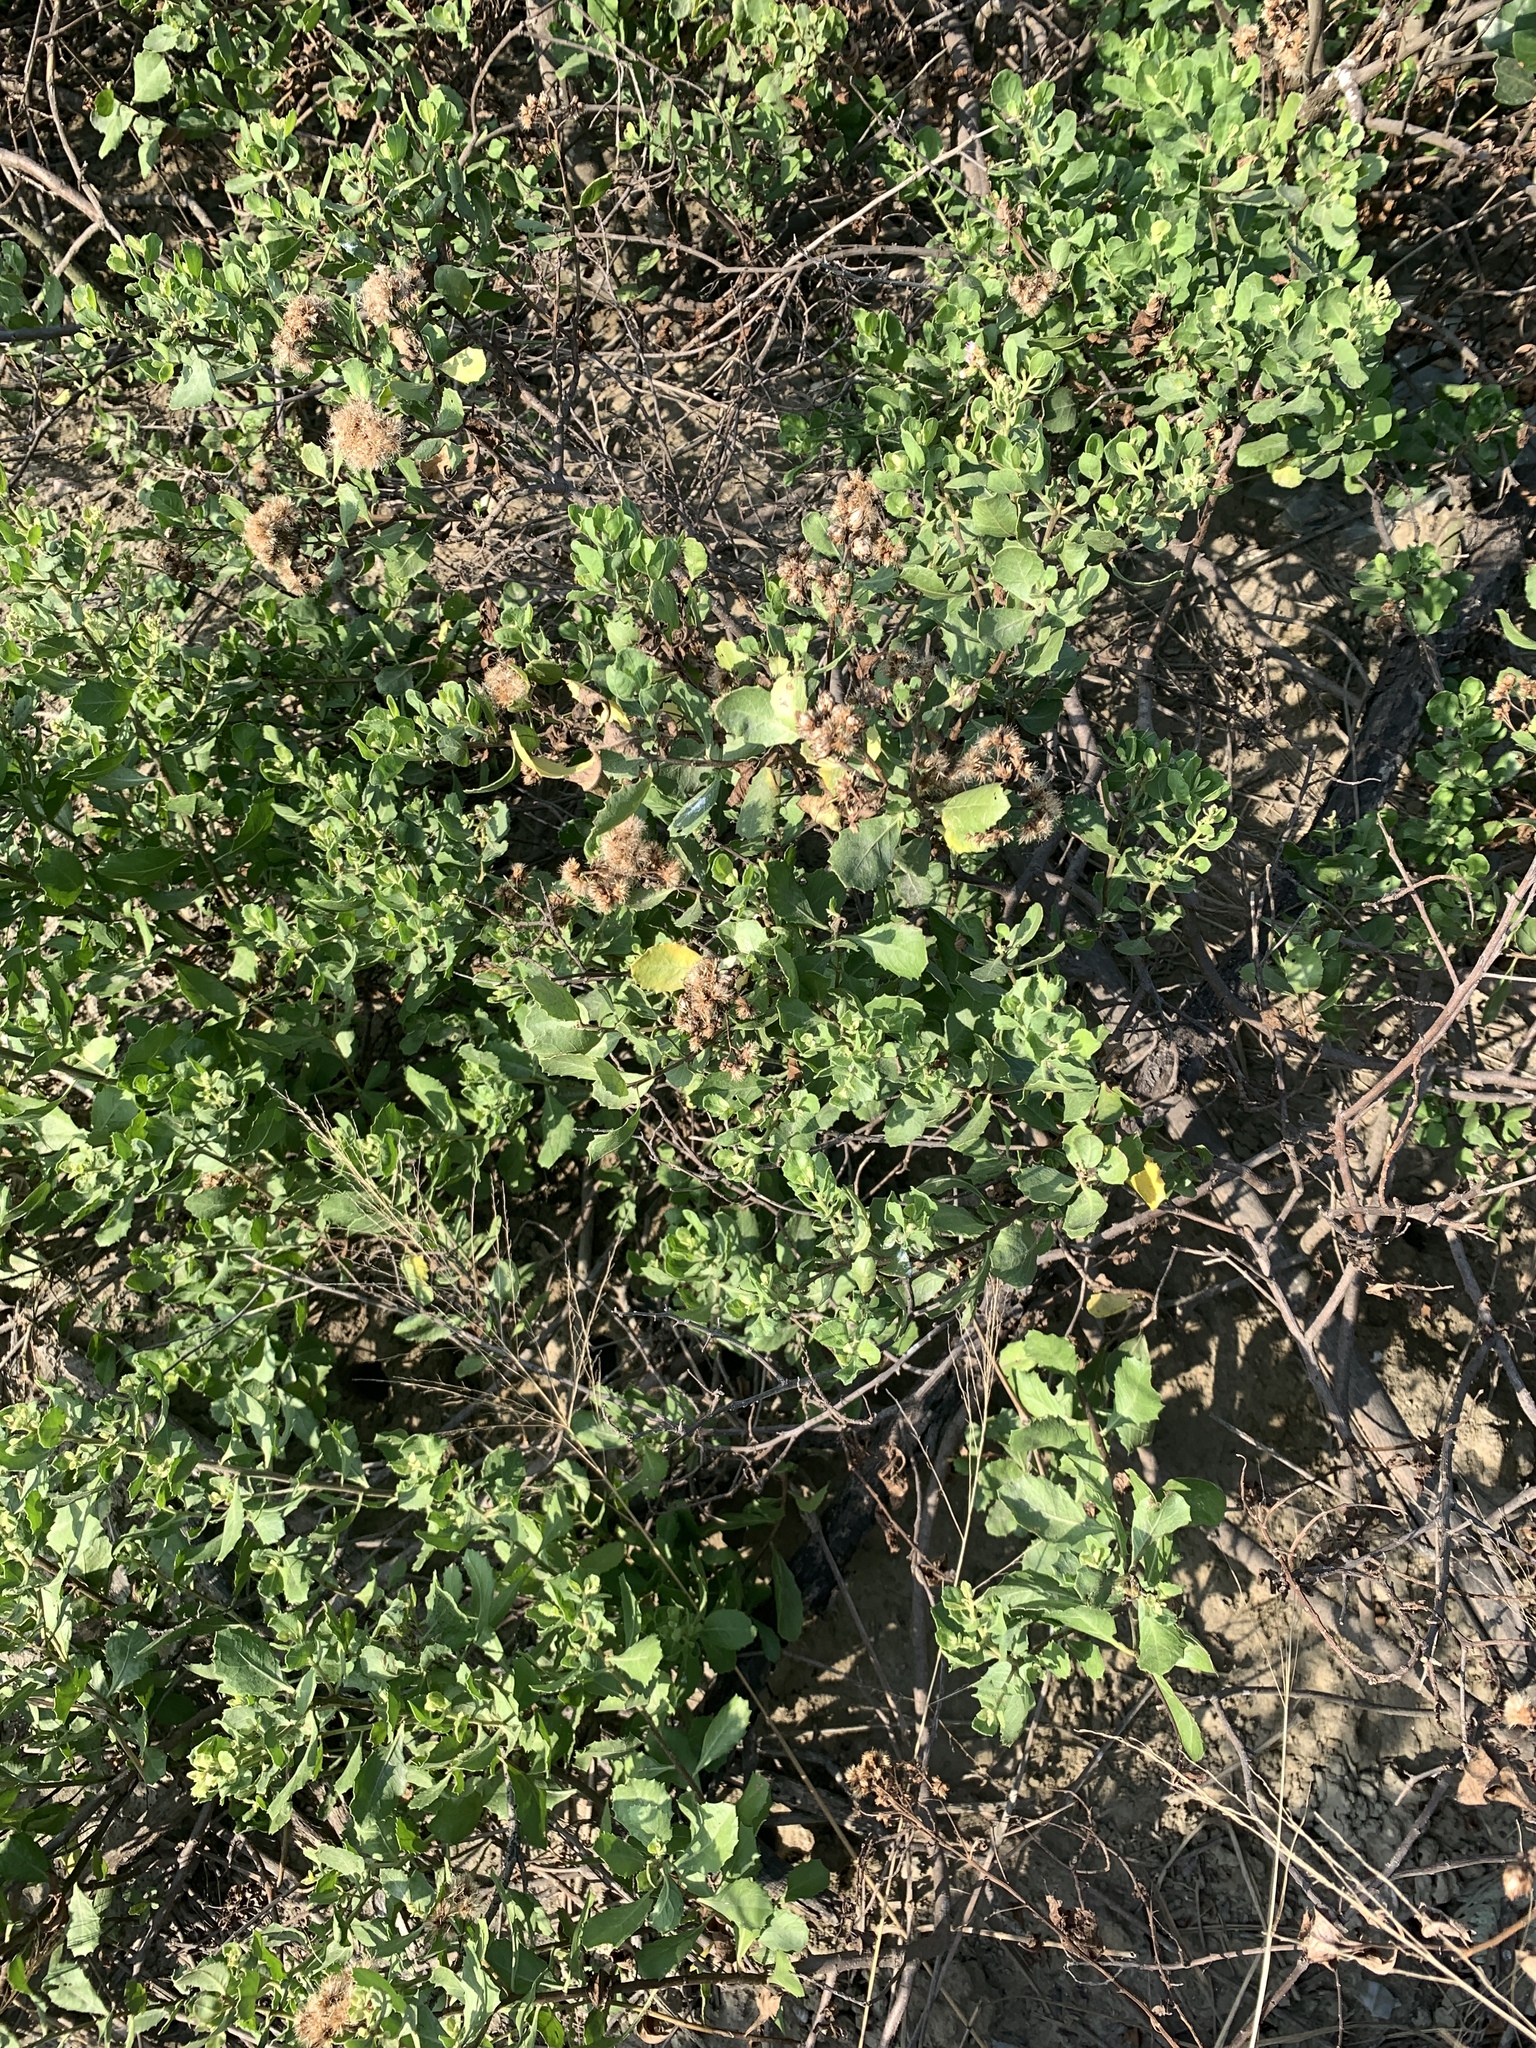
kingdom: Plantae
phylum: Tracheophyta
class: Magnoliopsida
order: Asterales
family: Asteraceae
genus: Pluchea
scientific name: Pluchea indica
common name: Indian fleabane
